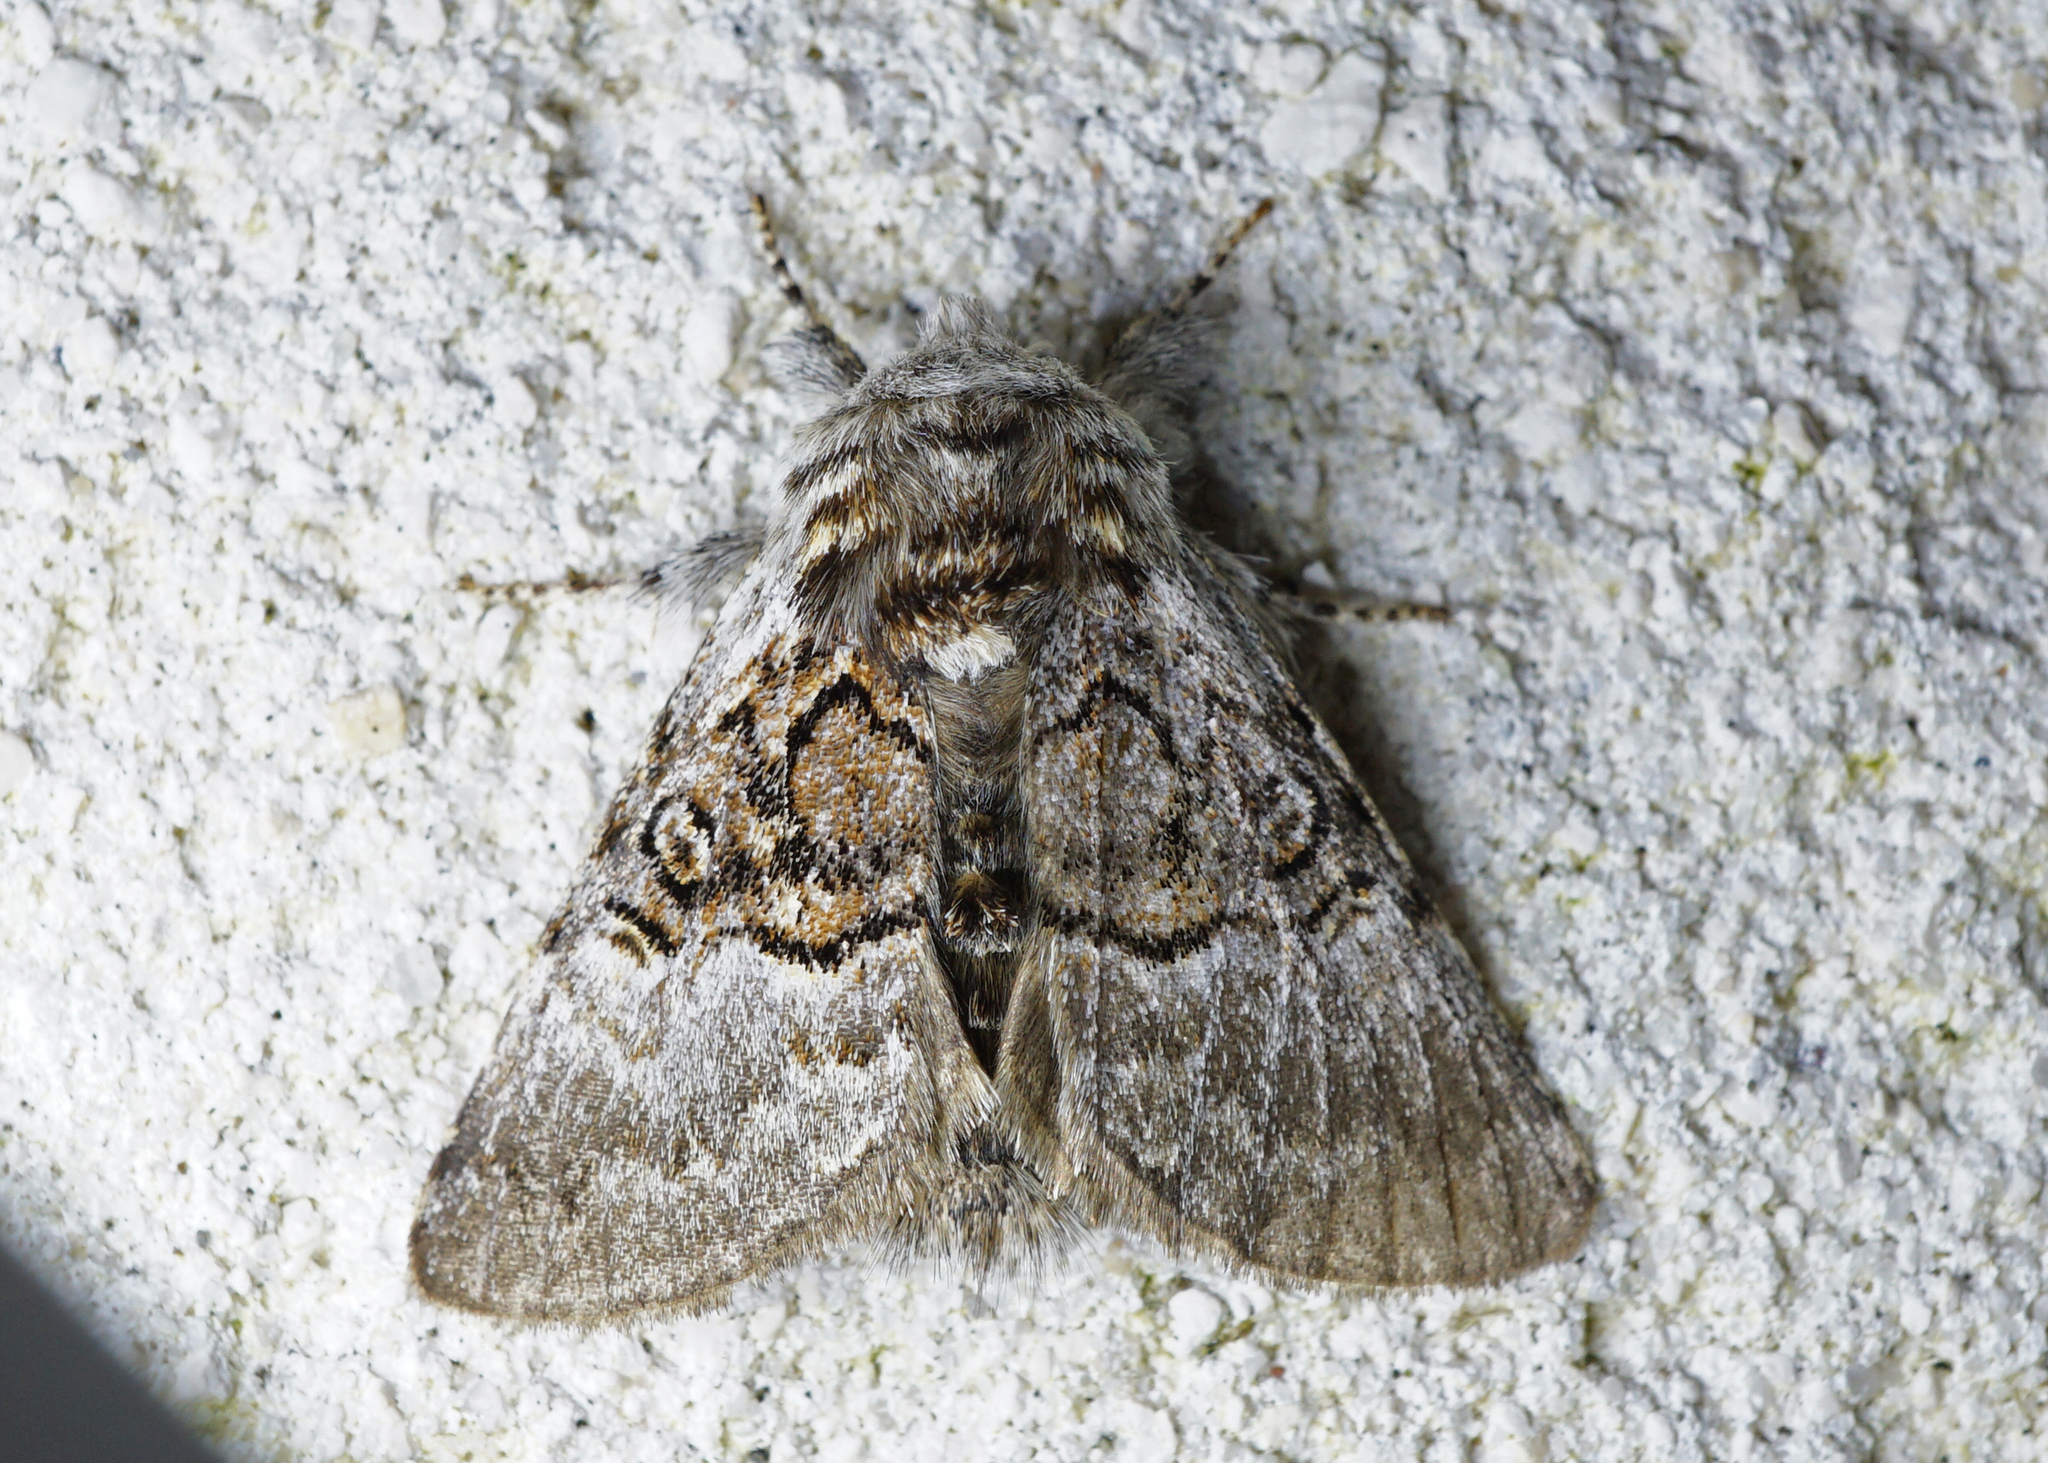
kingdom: Animalia
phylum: Arthropoda
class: Insecta
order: Lepidoptera
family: Noctuidae
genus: Colocasia
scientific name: Colocasia coryli
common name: Nut-tree tussock
